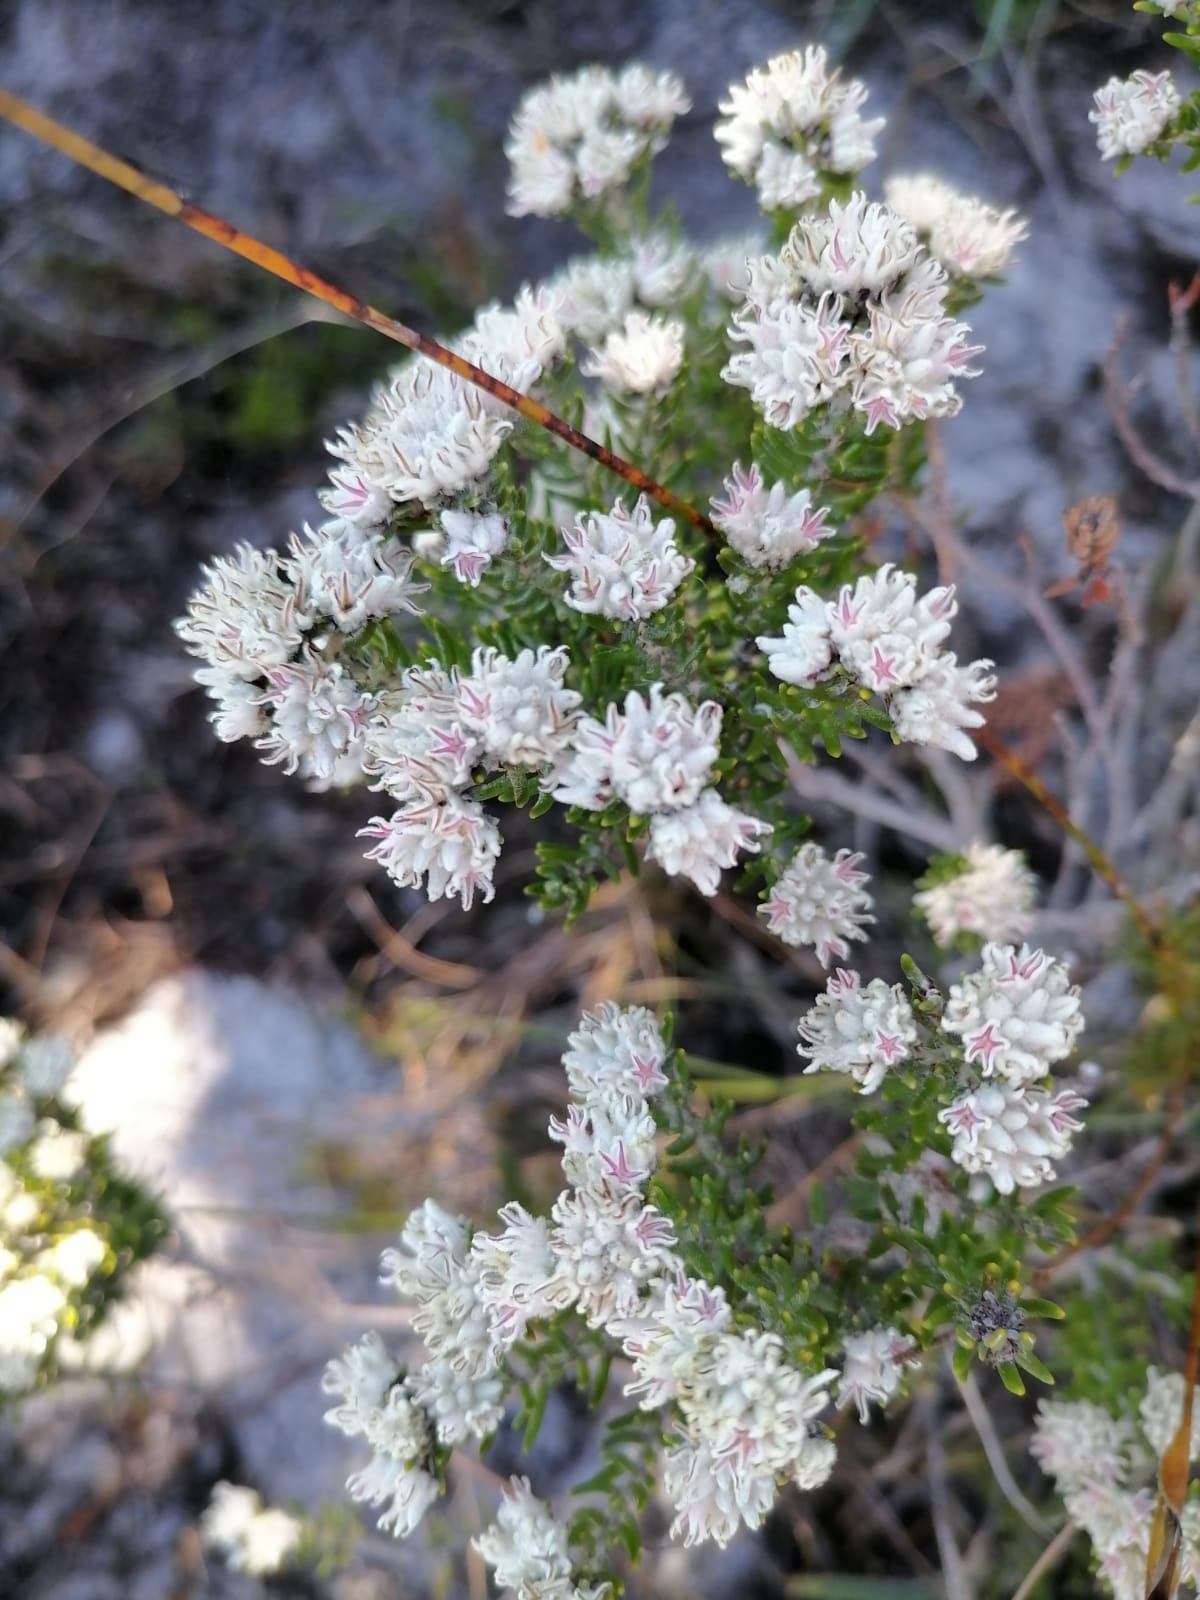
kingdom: Plantae
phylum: Tracheophyta
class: Magnoliopsida
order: Rosales
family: Rhamnaceae
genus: Trichocephalus
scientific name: Trichocephalus stipularis
